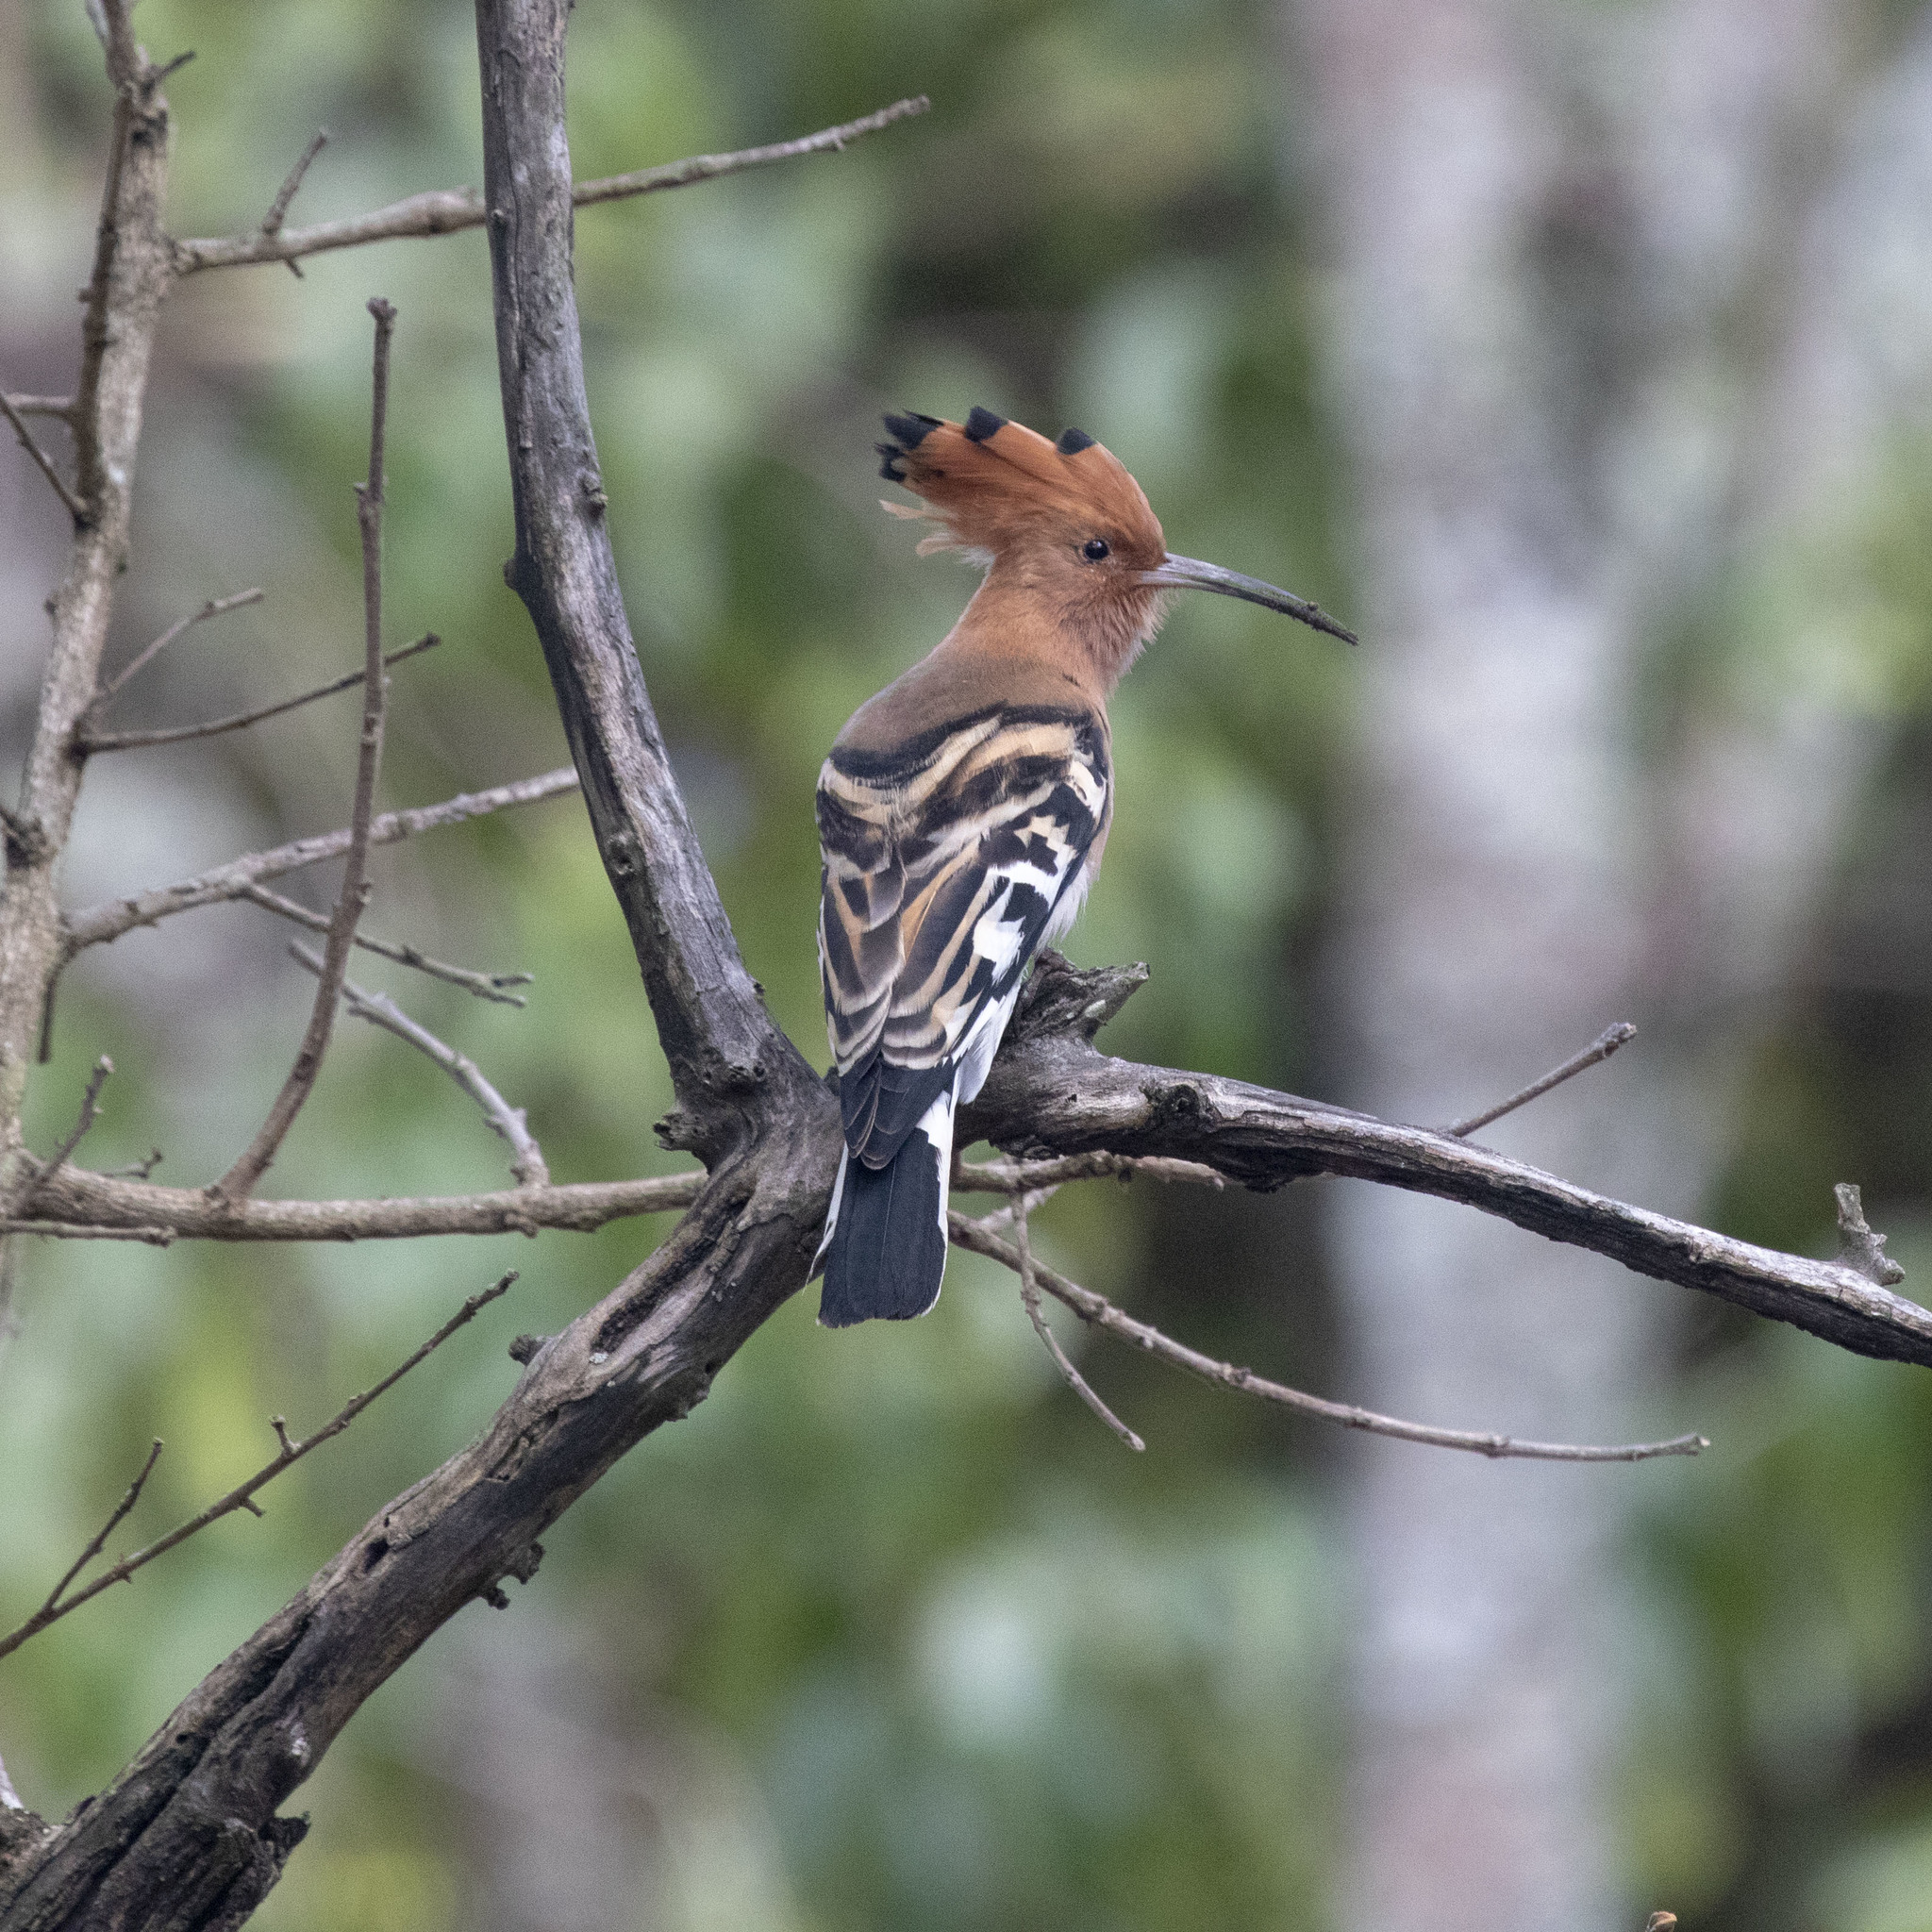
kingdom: Animalia
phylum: Chordata
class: Aves
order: Bucerotiformes
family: Upupidae
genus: Upupa
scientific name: Upupa epops
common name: Eurasian hoopoe
